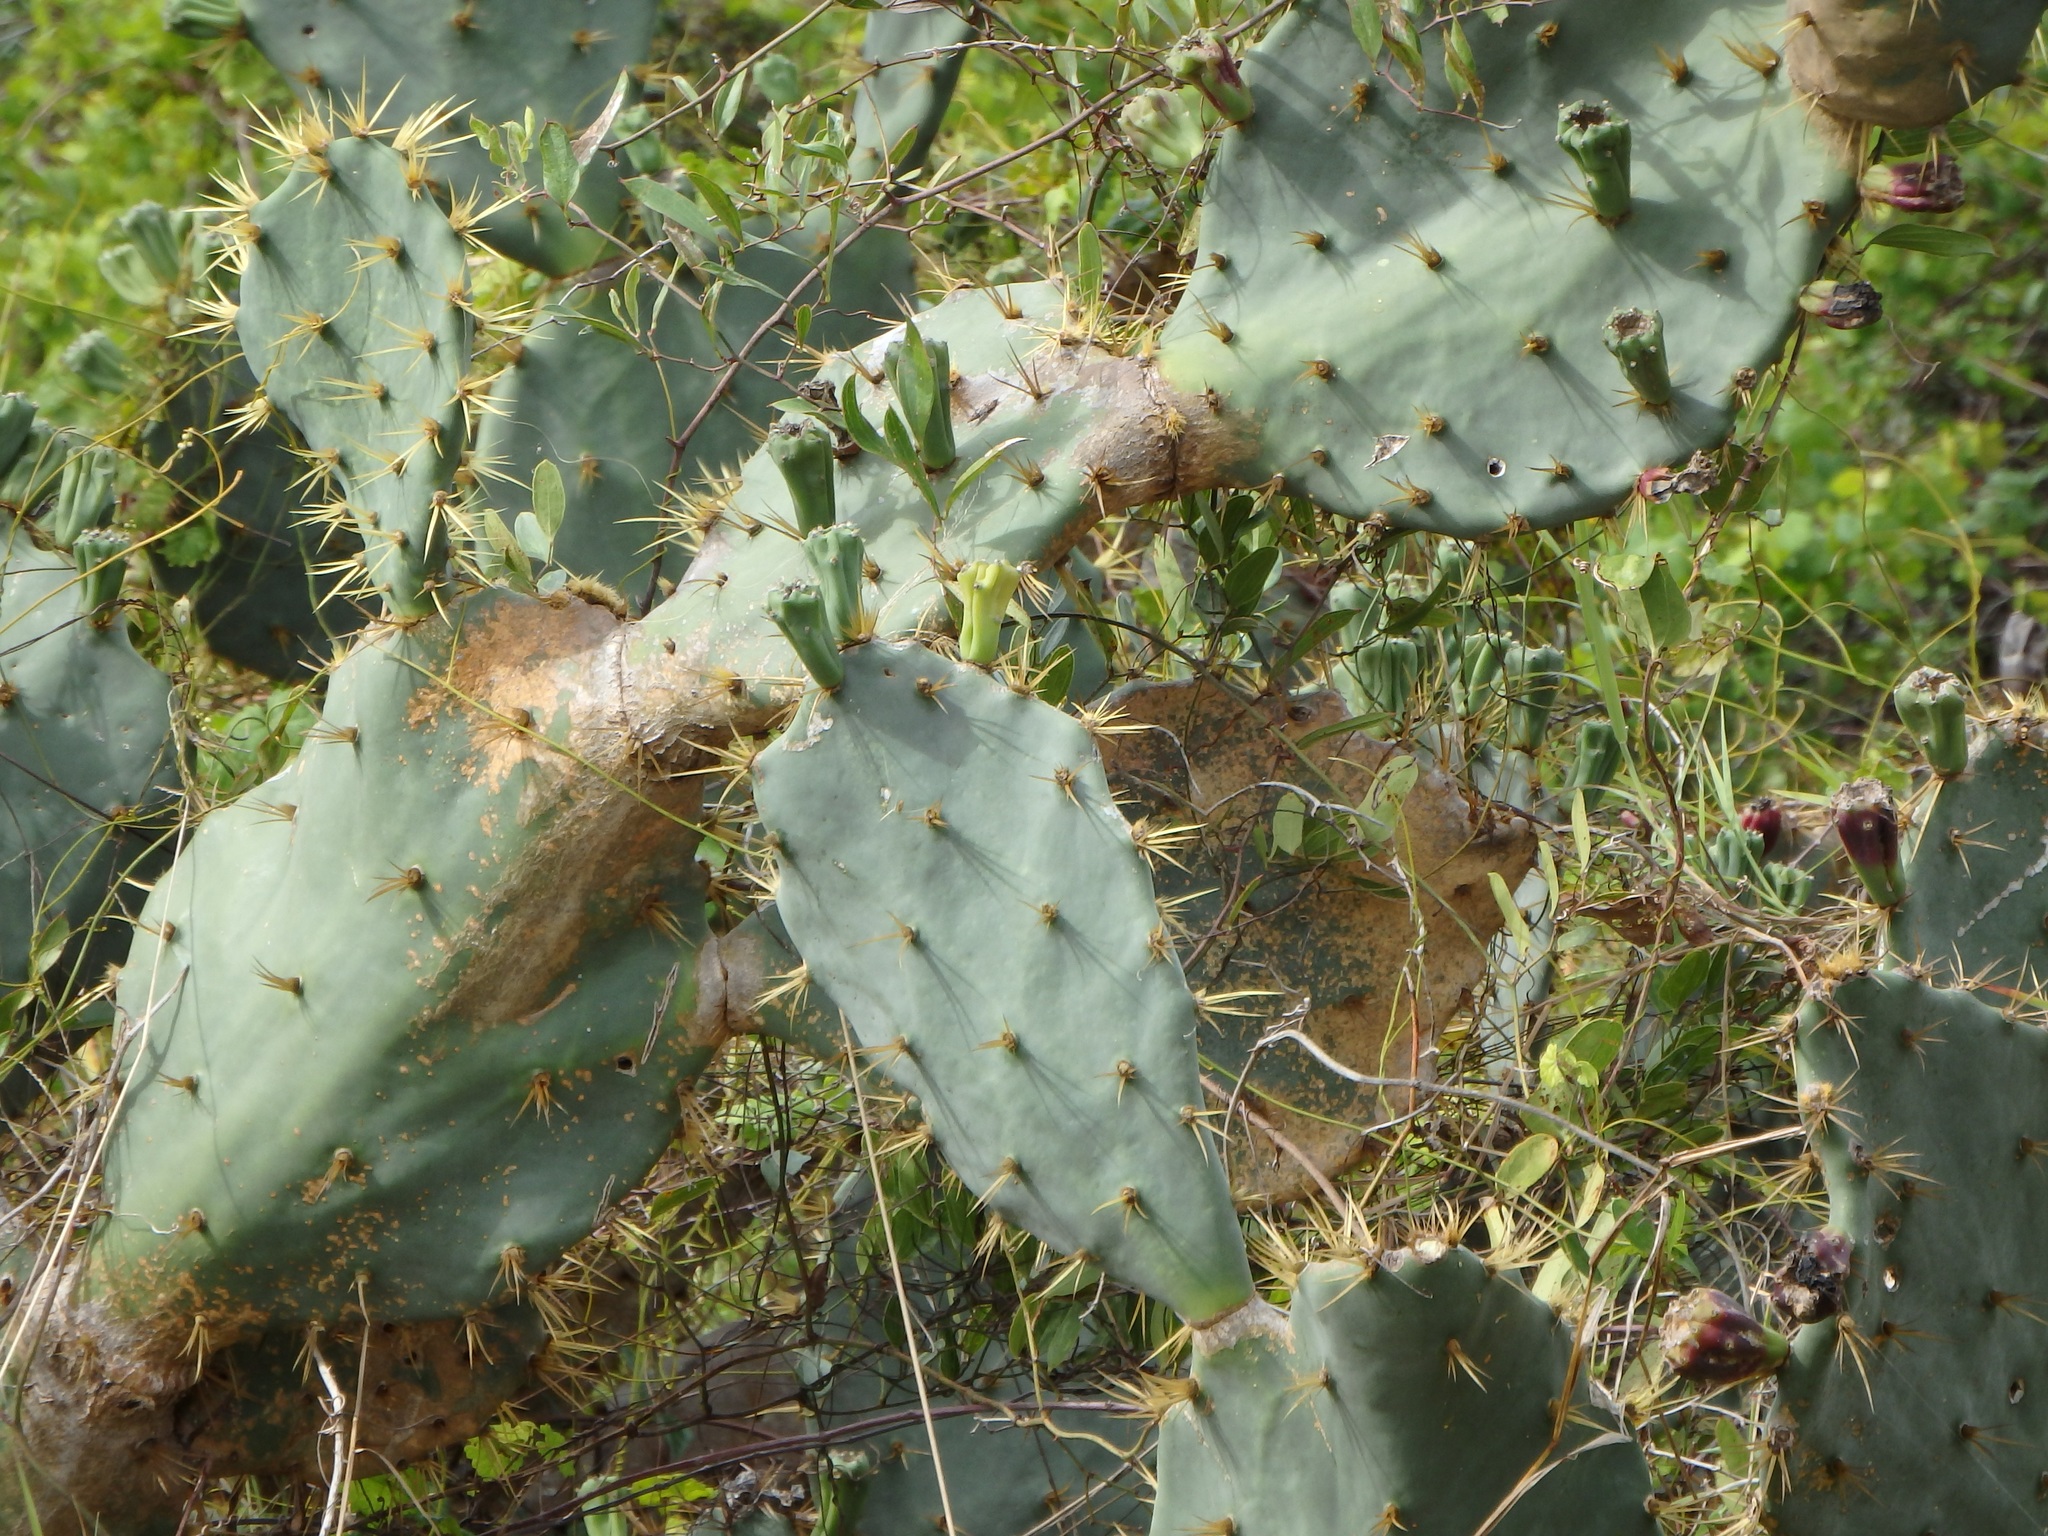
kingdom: Plantae
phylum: Tracheophyta
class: Magnoliopsida
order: Caryophyllales
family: Cactaceae
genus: Opuntia
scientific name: Opuntia dillenii
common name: Sour prickle
